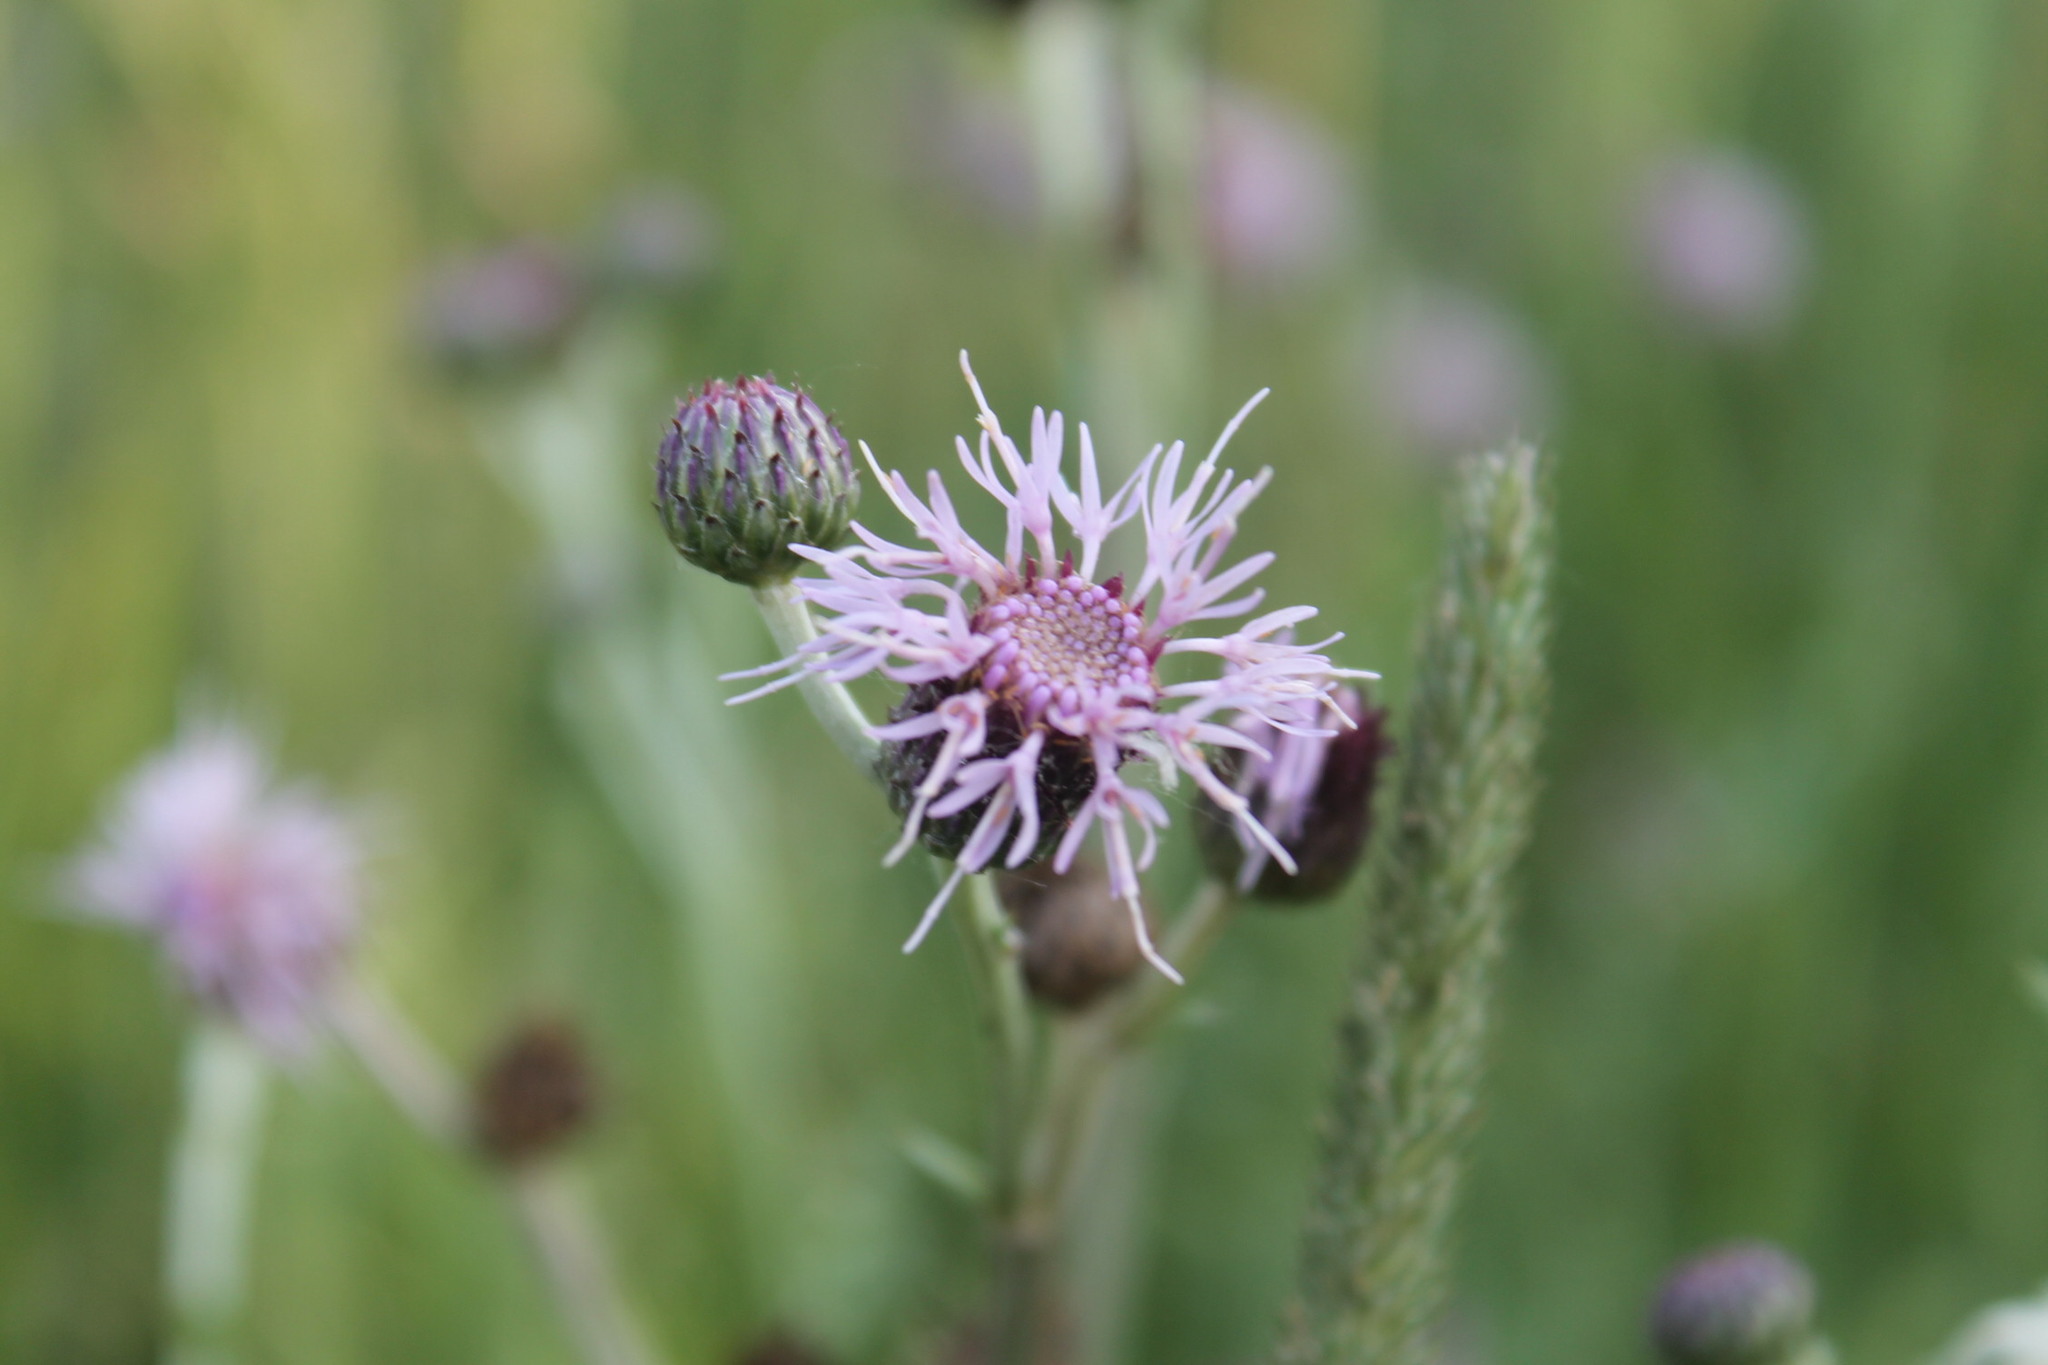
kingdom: Plantae
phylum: Tracheophyta
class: Magnoliopsida
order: Asterales
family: Asteraceae
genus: Cirsium
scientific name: Cirsium arvense
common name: Creeping thistle
